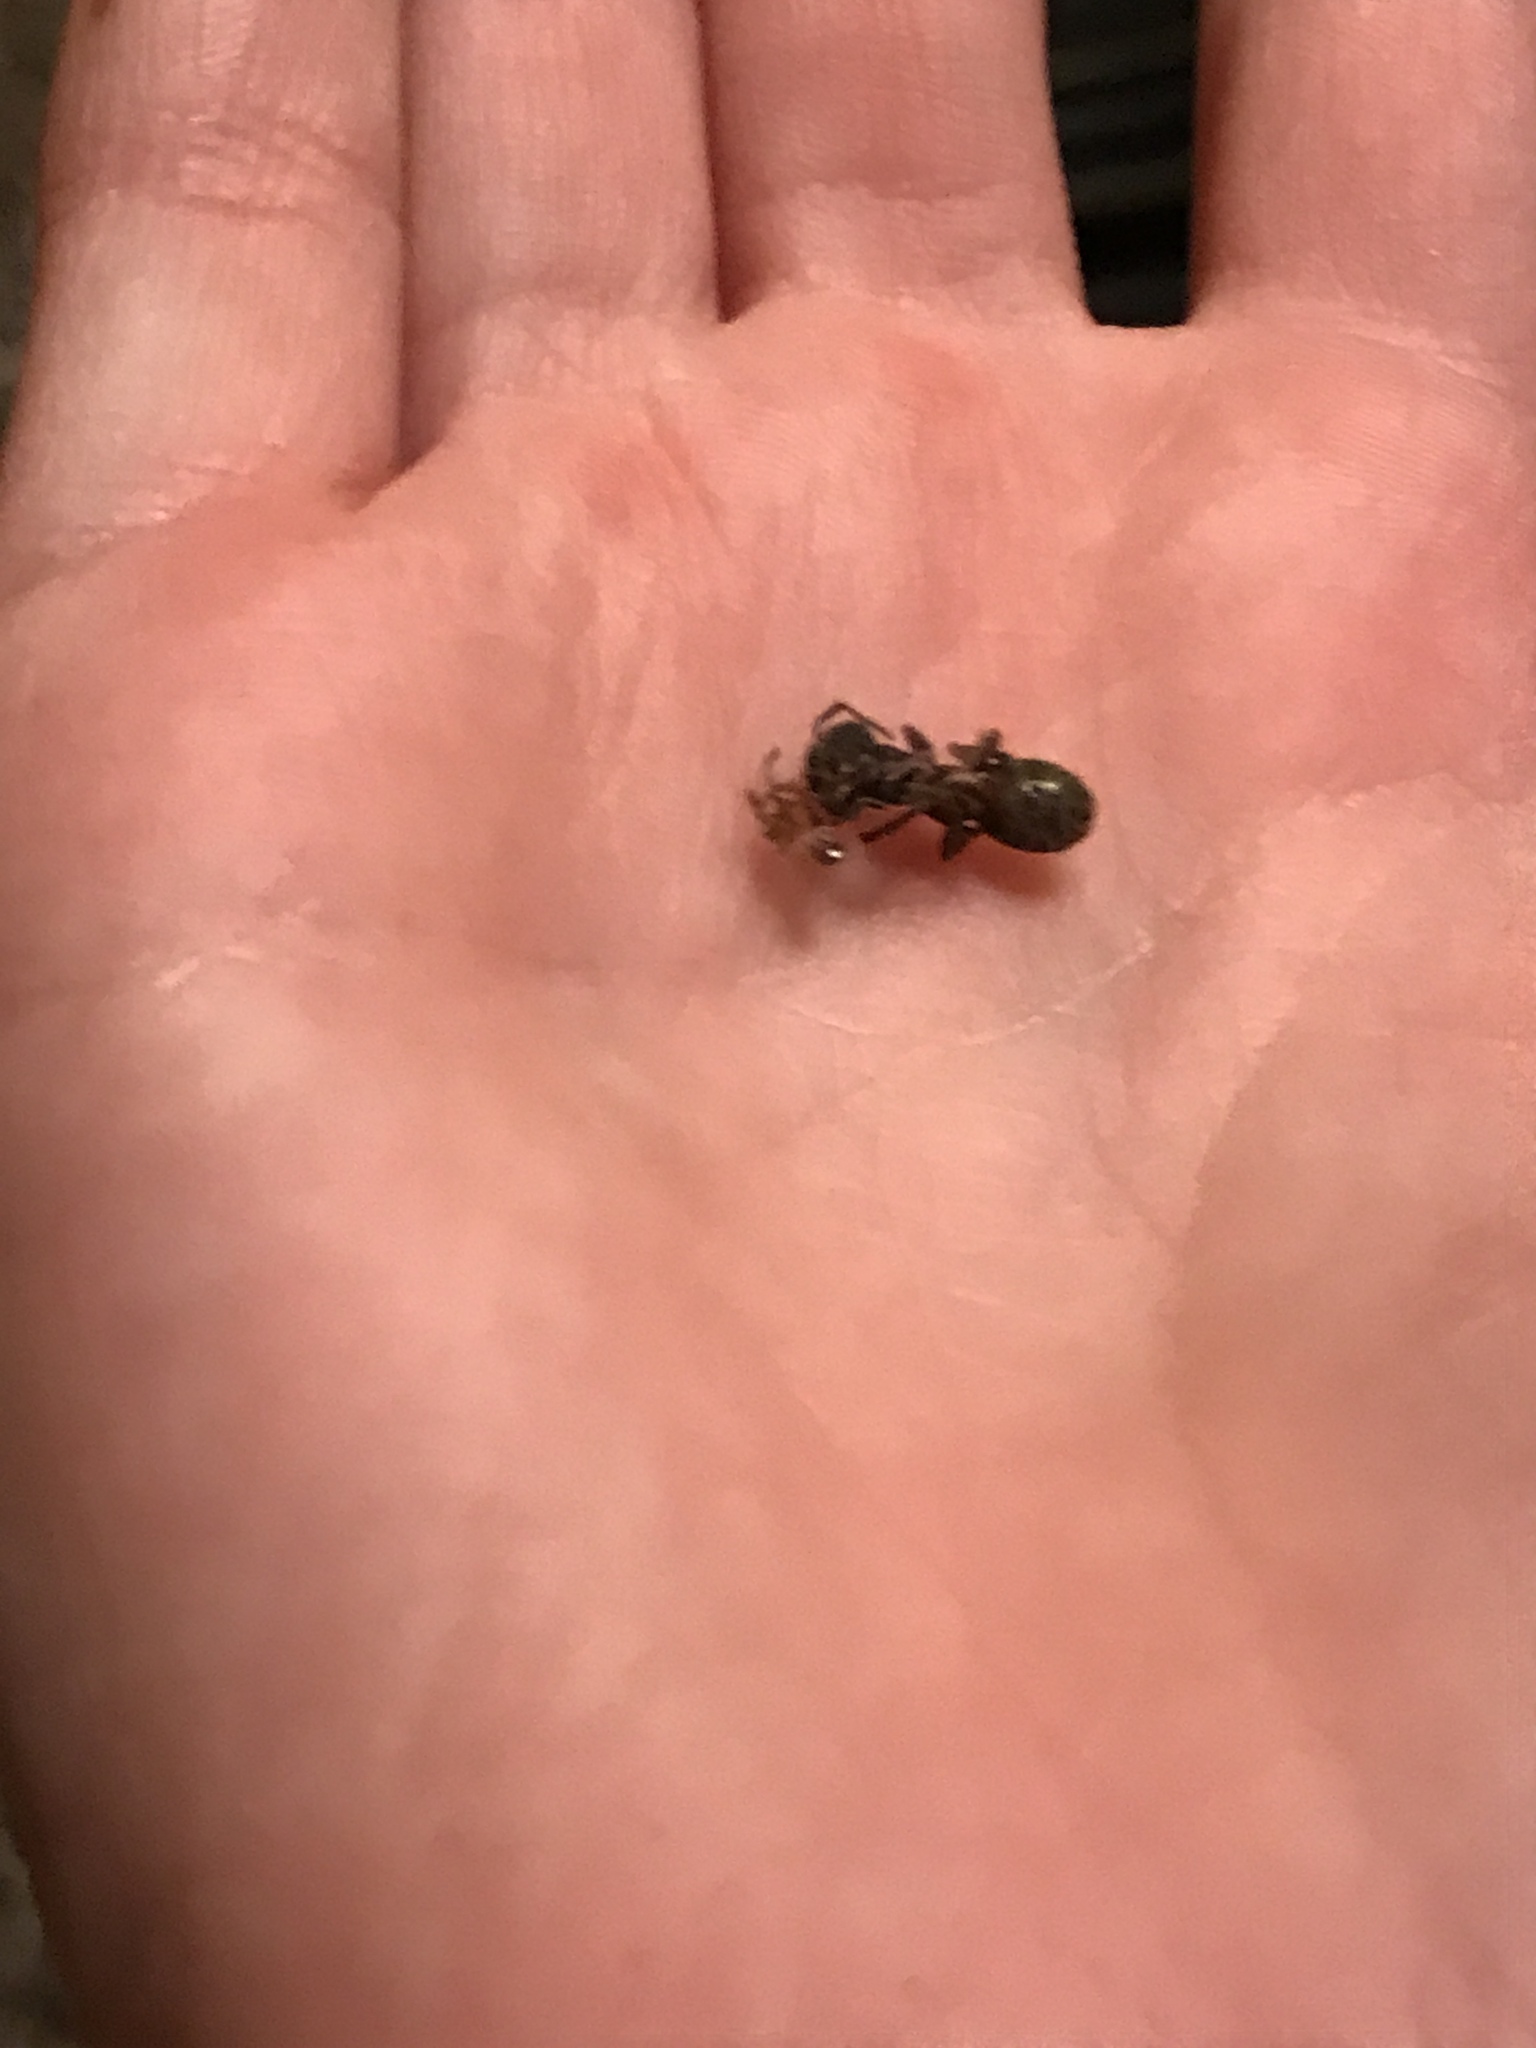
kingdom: Animalia
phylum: Arthropoda
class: Insecta
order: Hymenoptera
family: Formicidae
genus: Camponotus
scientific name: Camponotus modoc
